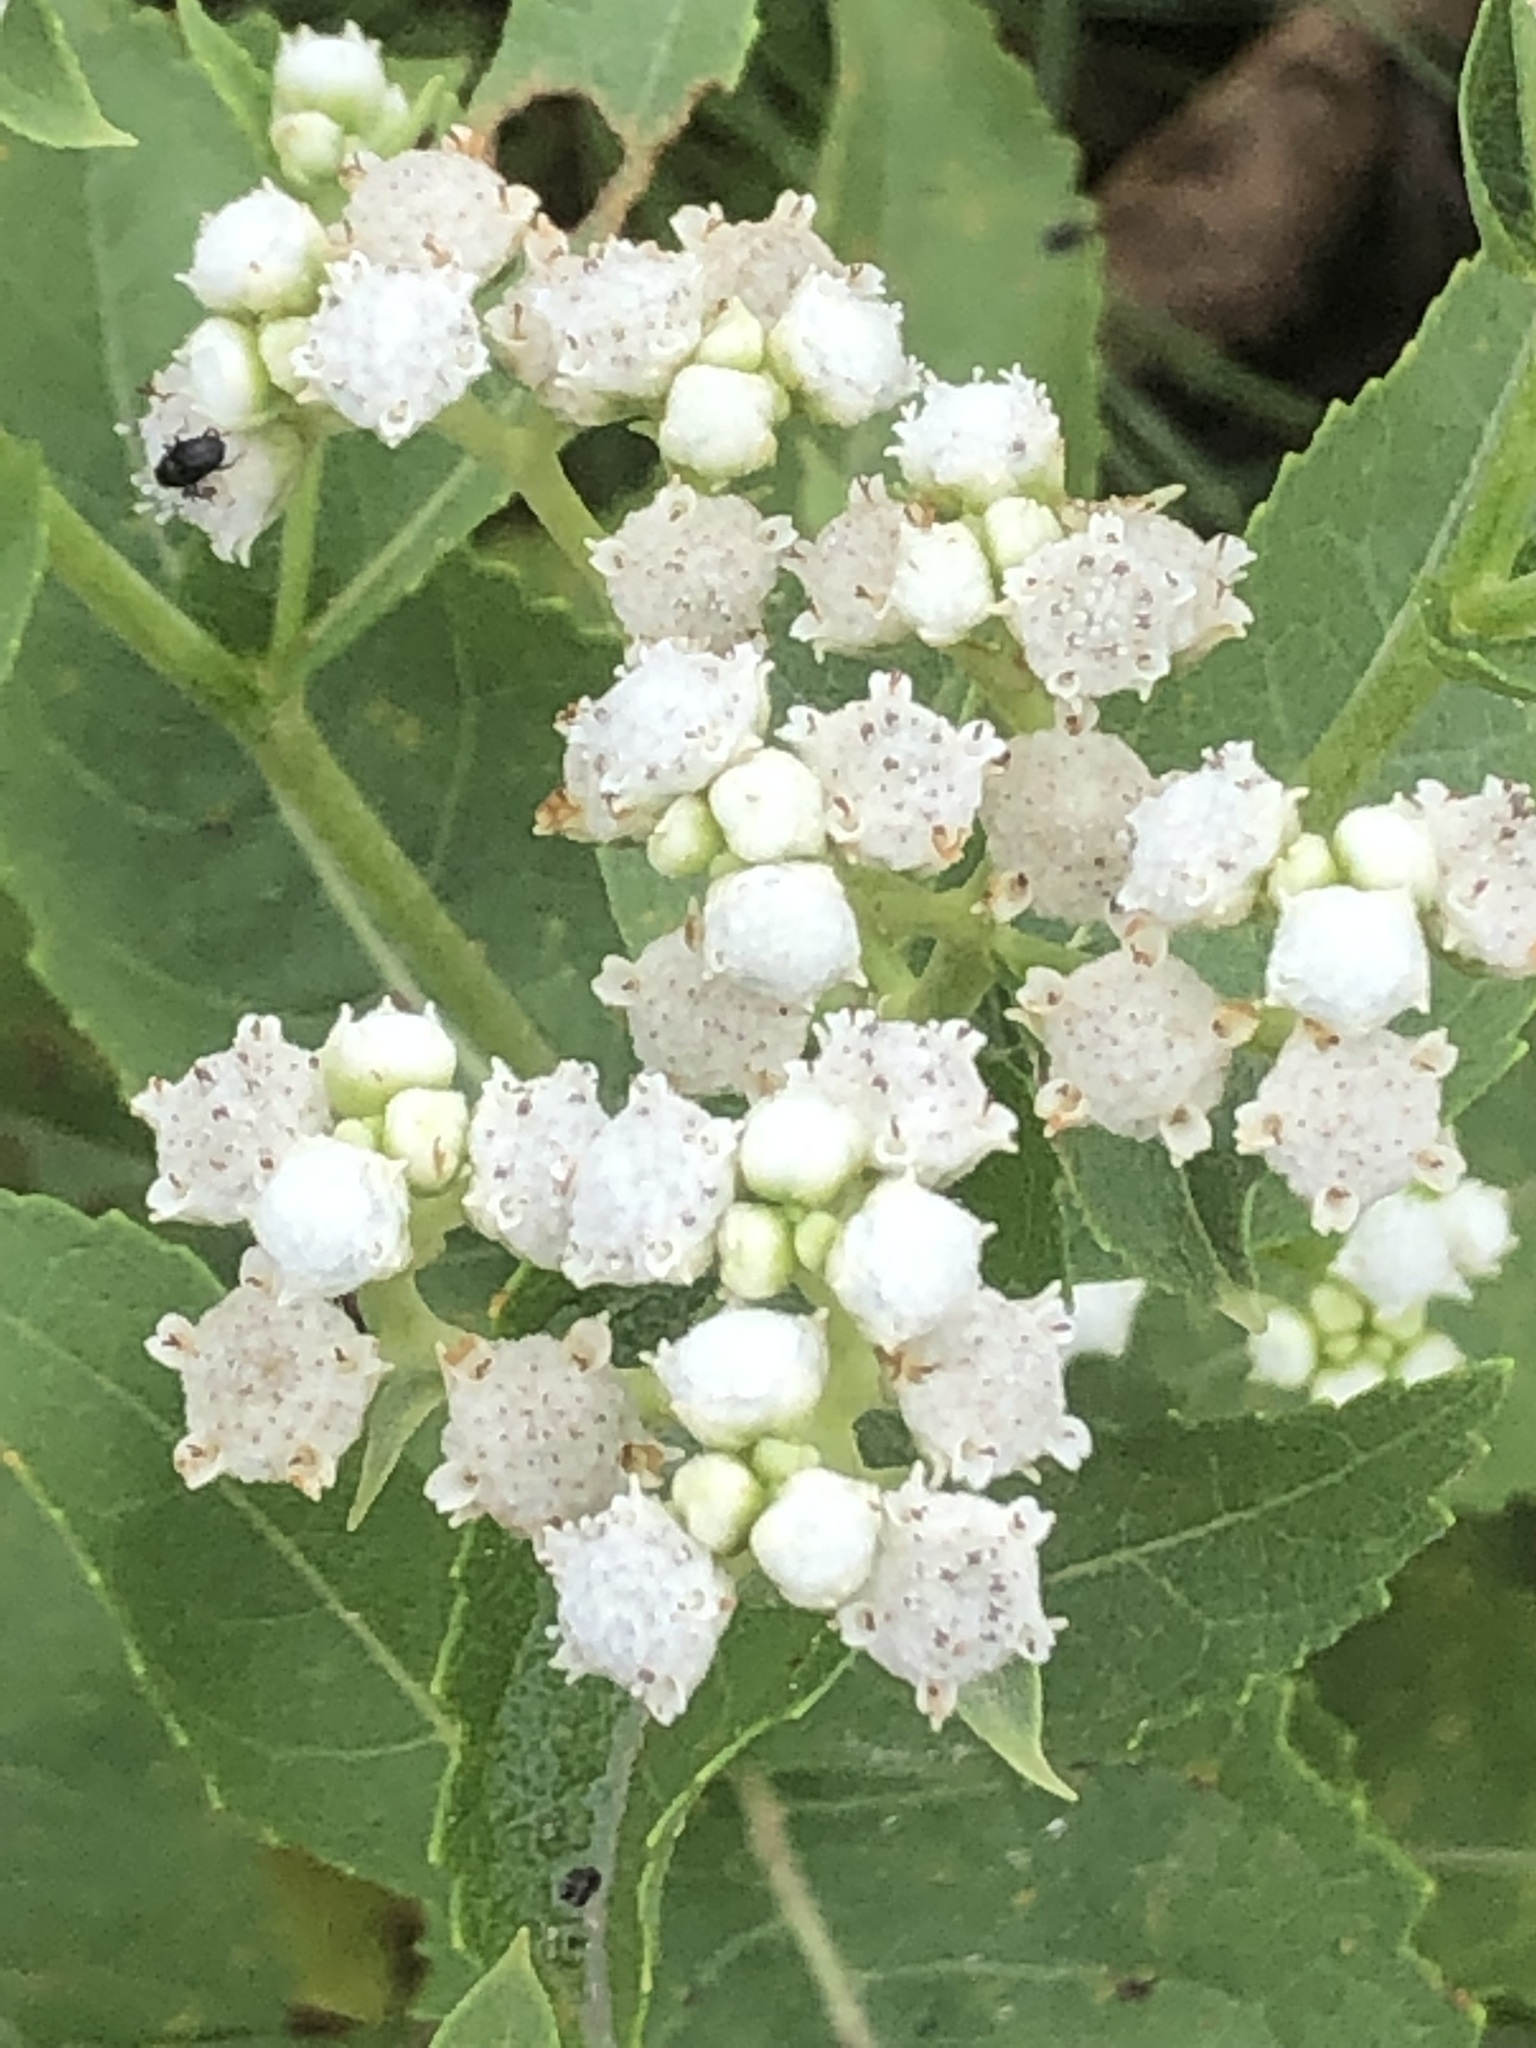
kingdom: Plantae
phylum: Tracheophyta
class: Magnoliopsida
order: Asterales
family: Asteraceae
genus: Parthenium
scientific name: Parthenium integrifolium
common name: American feverfew
